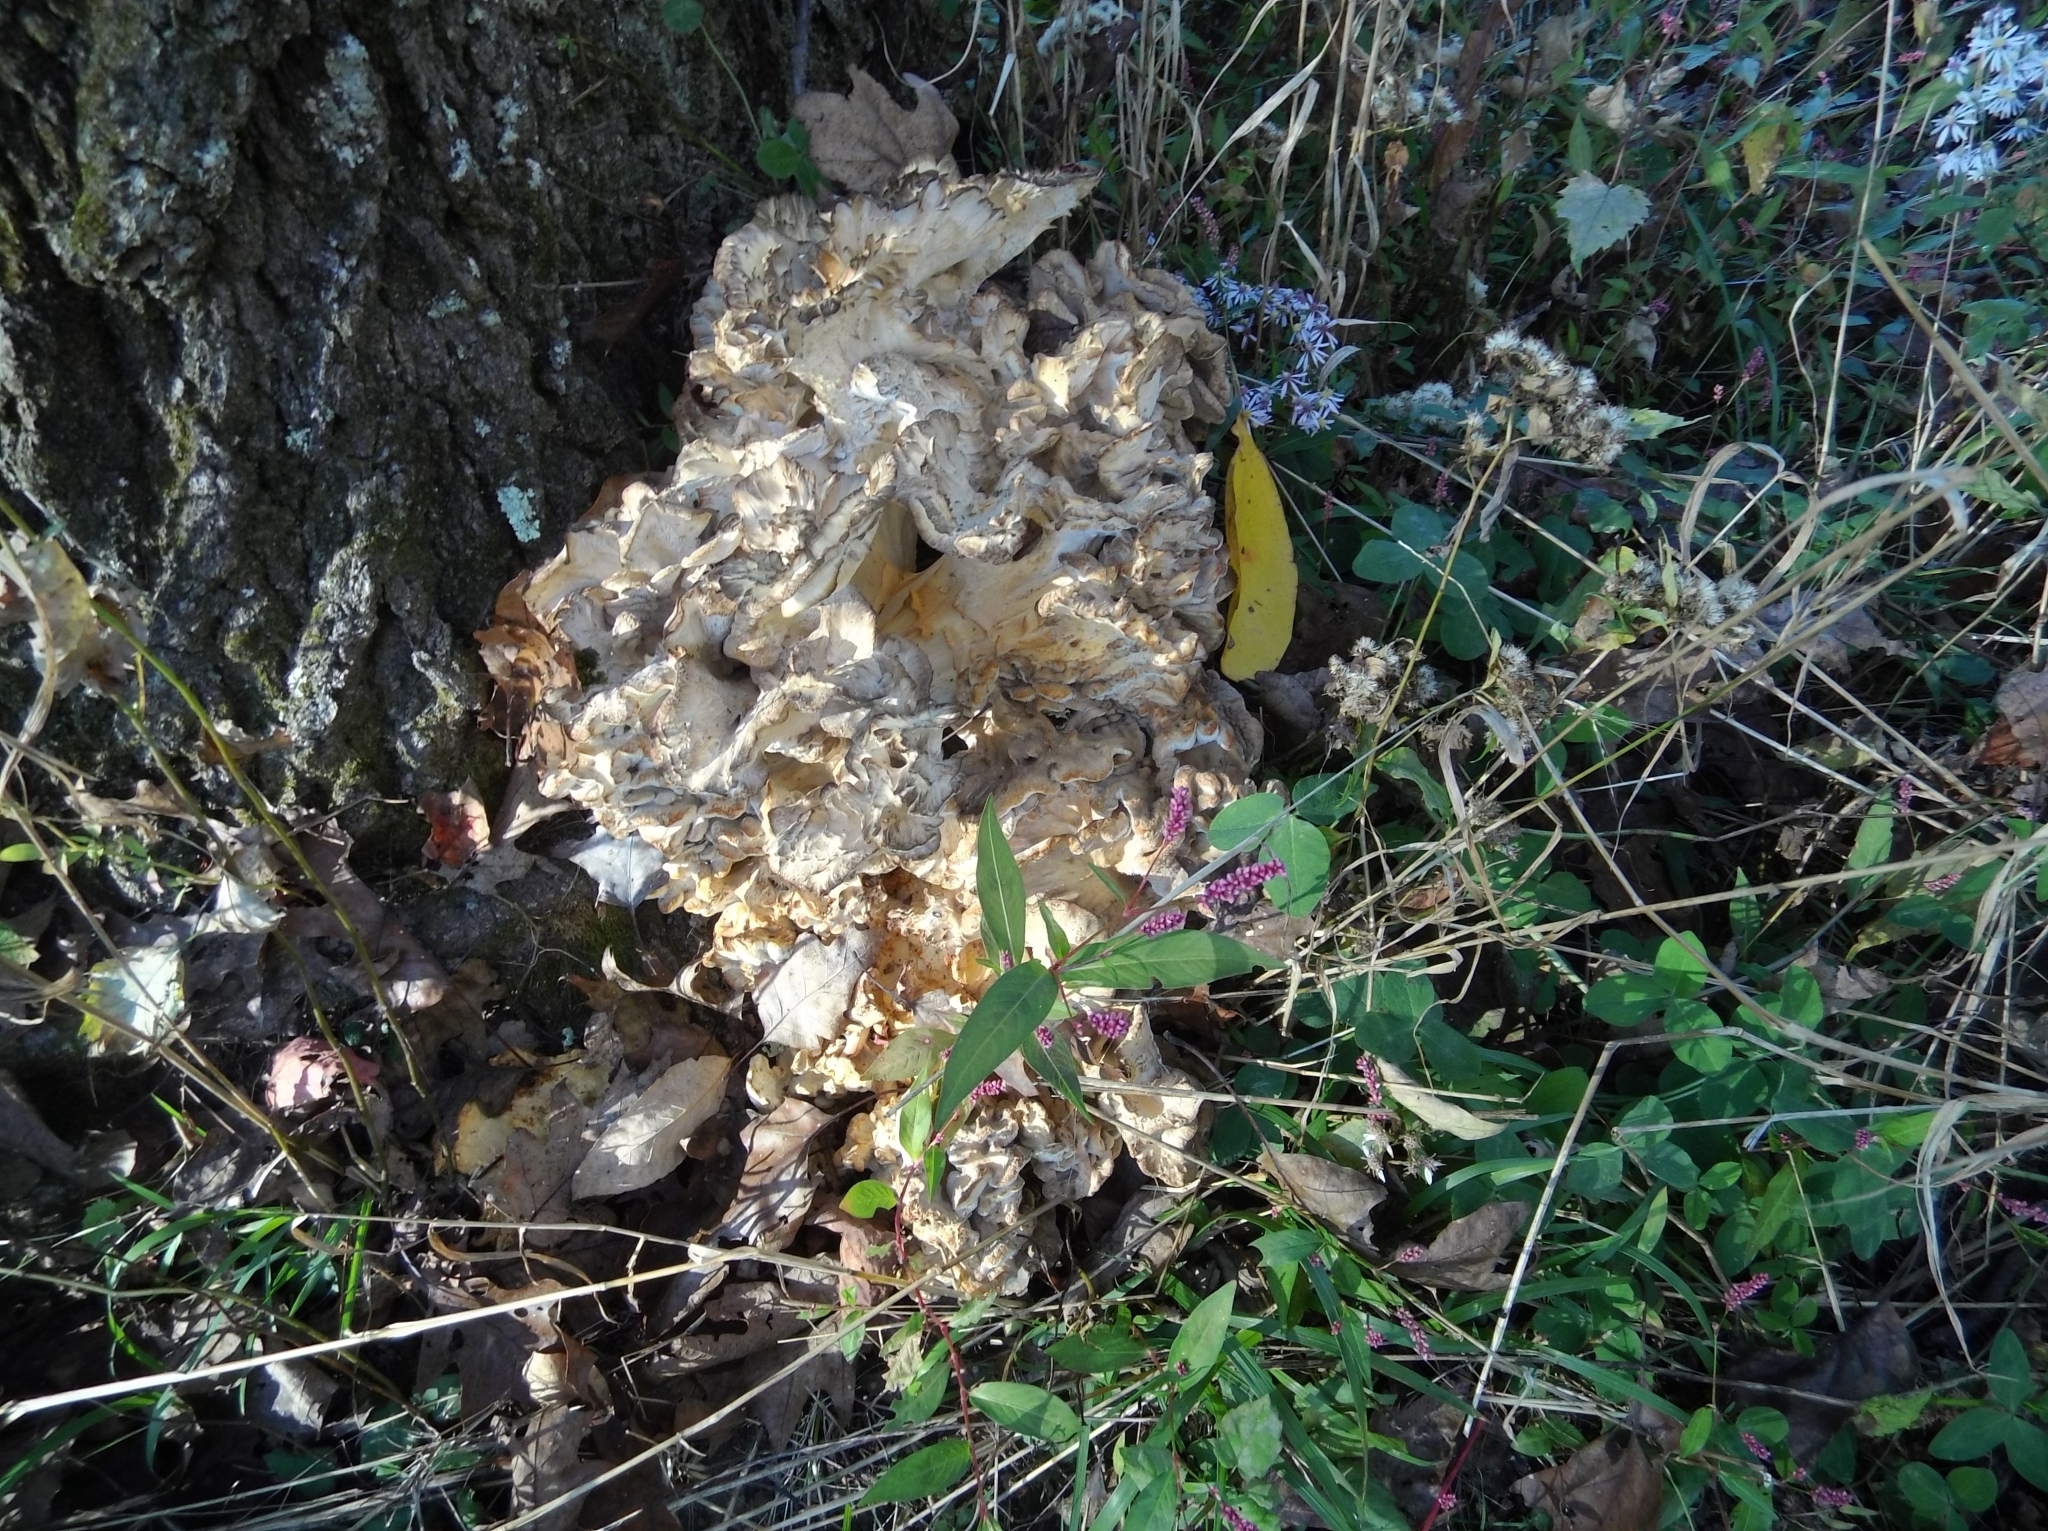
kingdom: Fungi
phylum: Basidiomycota
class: Agaricomycetes
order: Polyporales
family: Grifolaceae
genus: Grifola
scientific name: Grifola frondosa
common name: Hen of the woods
